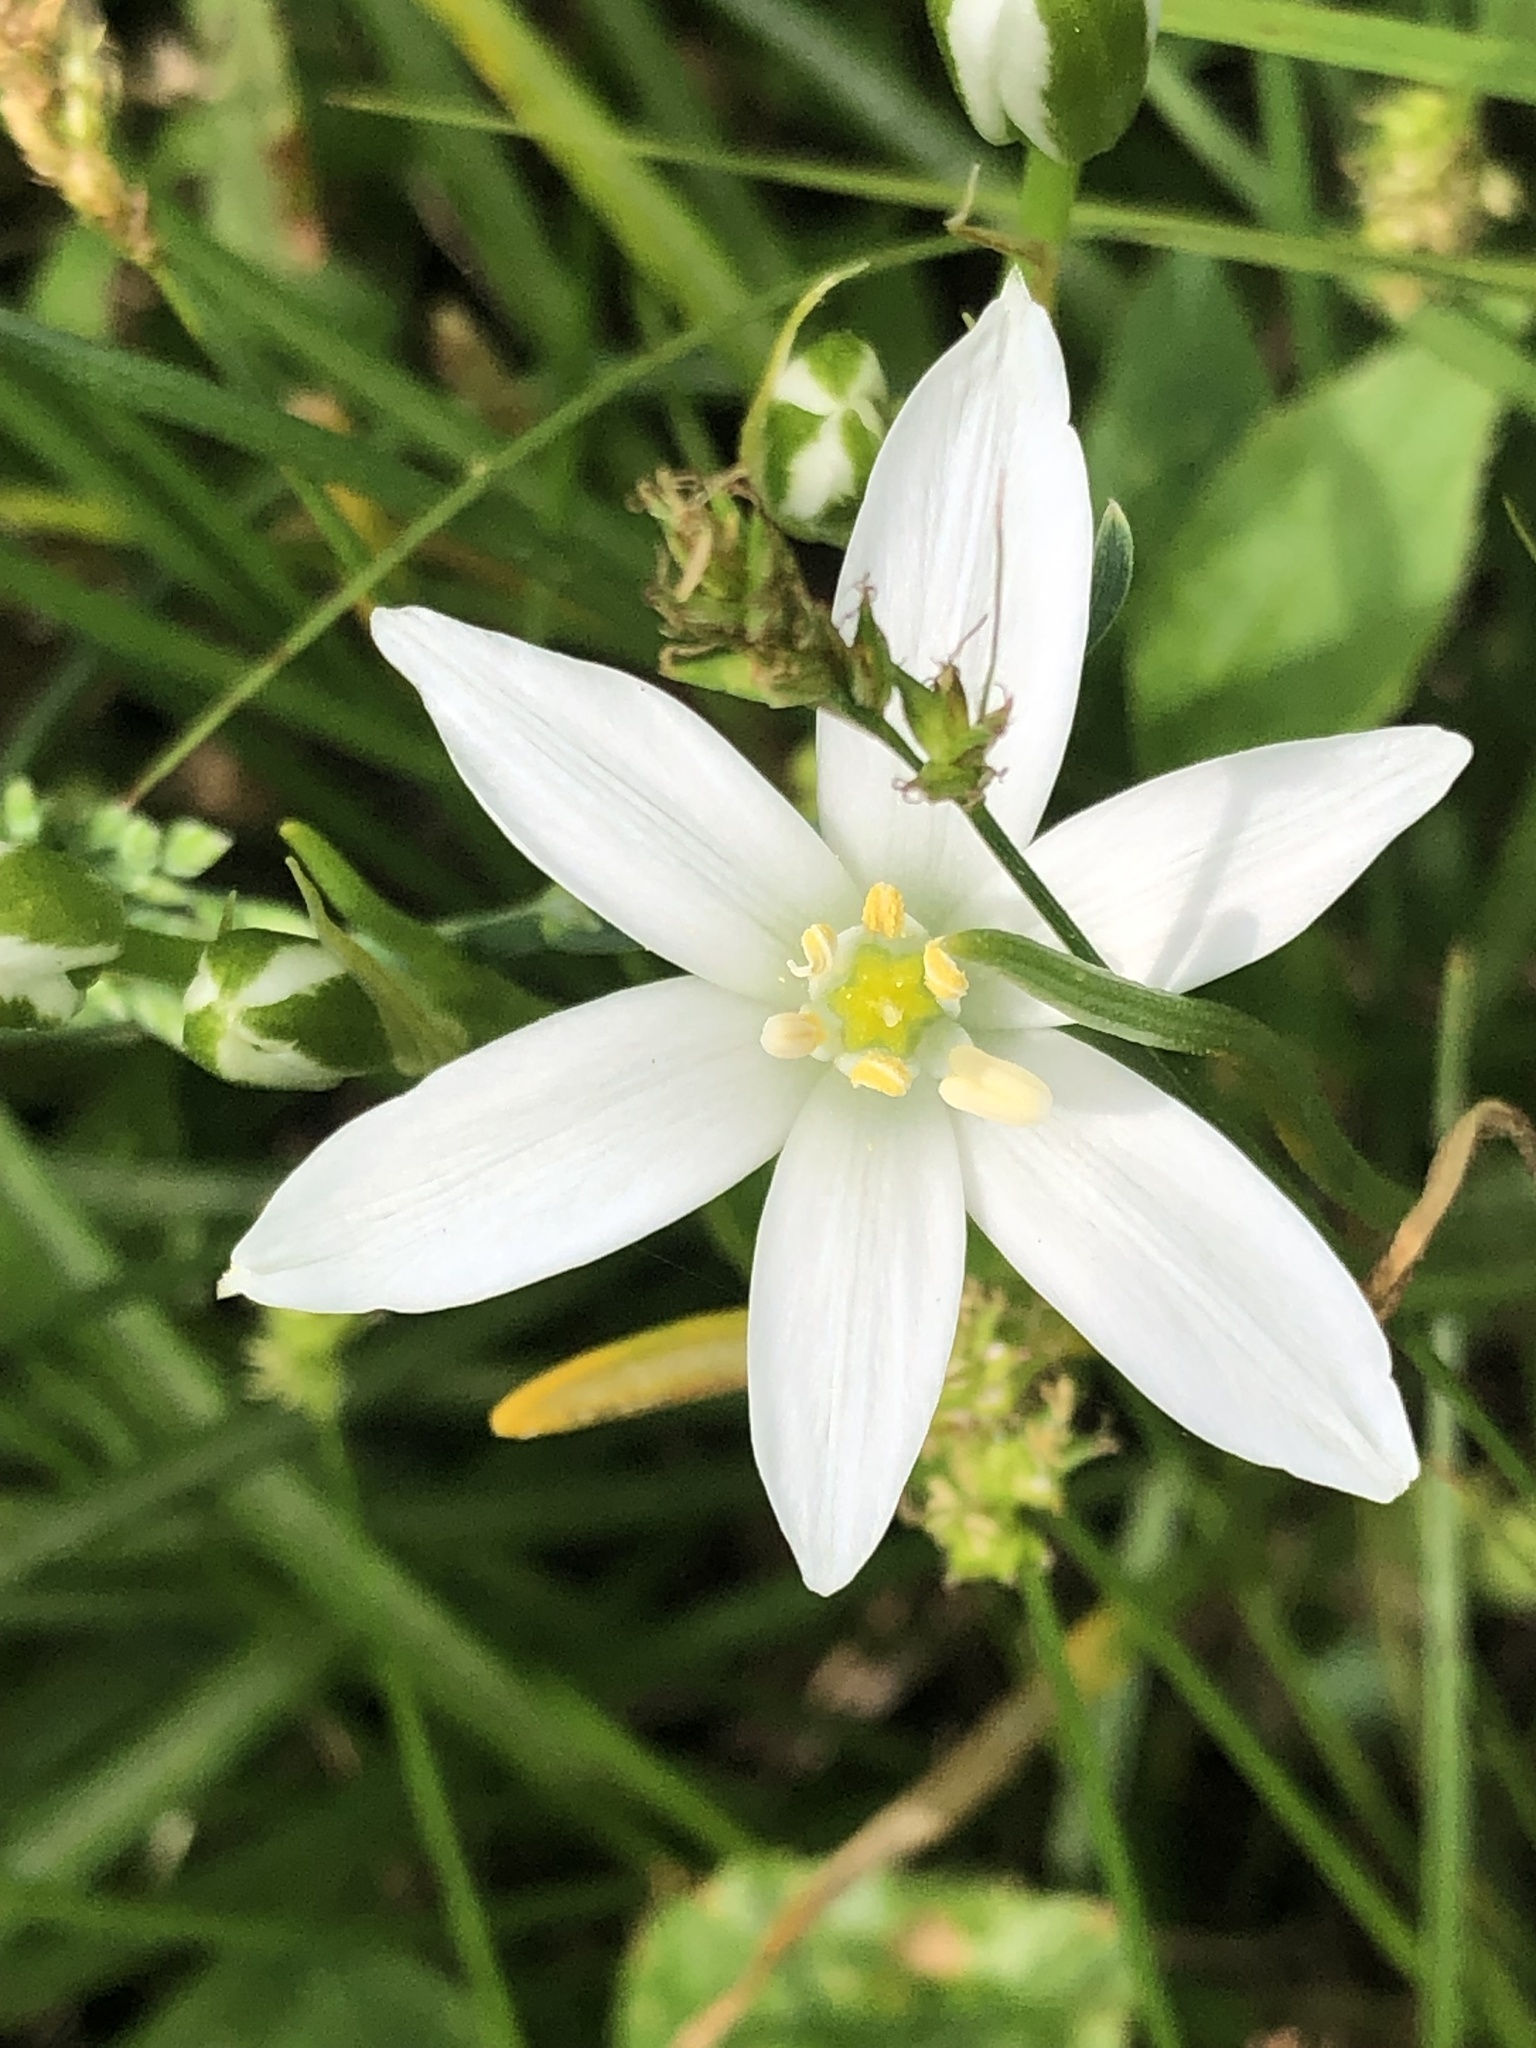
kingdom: Plantae
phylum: Tracheophyta
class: Liliopsida
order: Asparagales
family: Asparagaceae
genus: Ornithogalum
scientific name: Ornithogalum umbellatum
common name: Garden star-of-bethlehem
